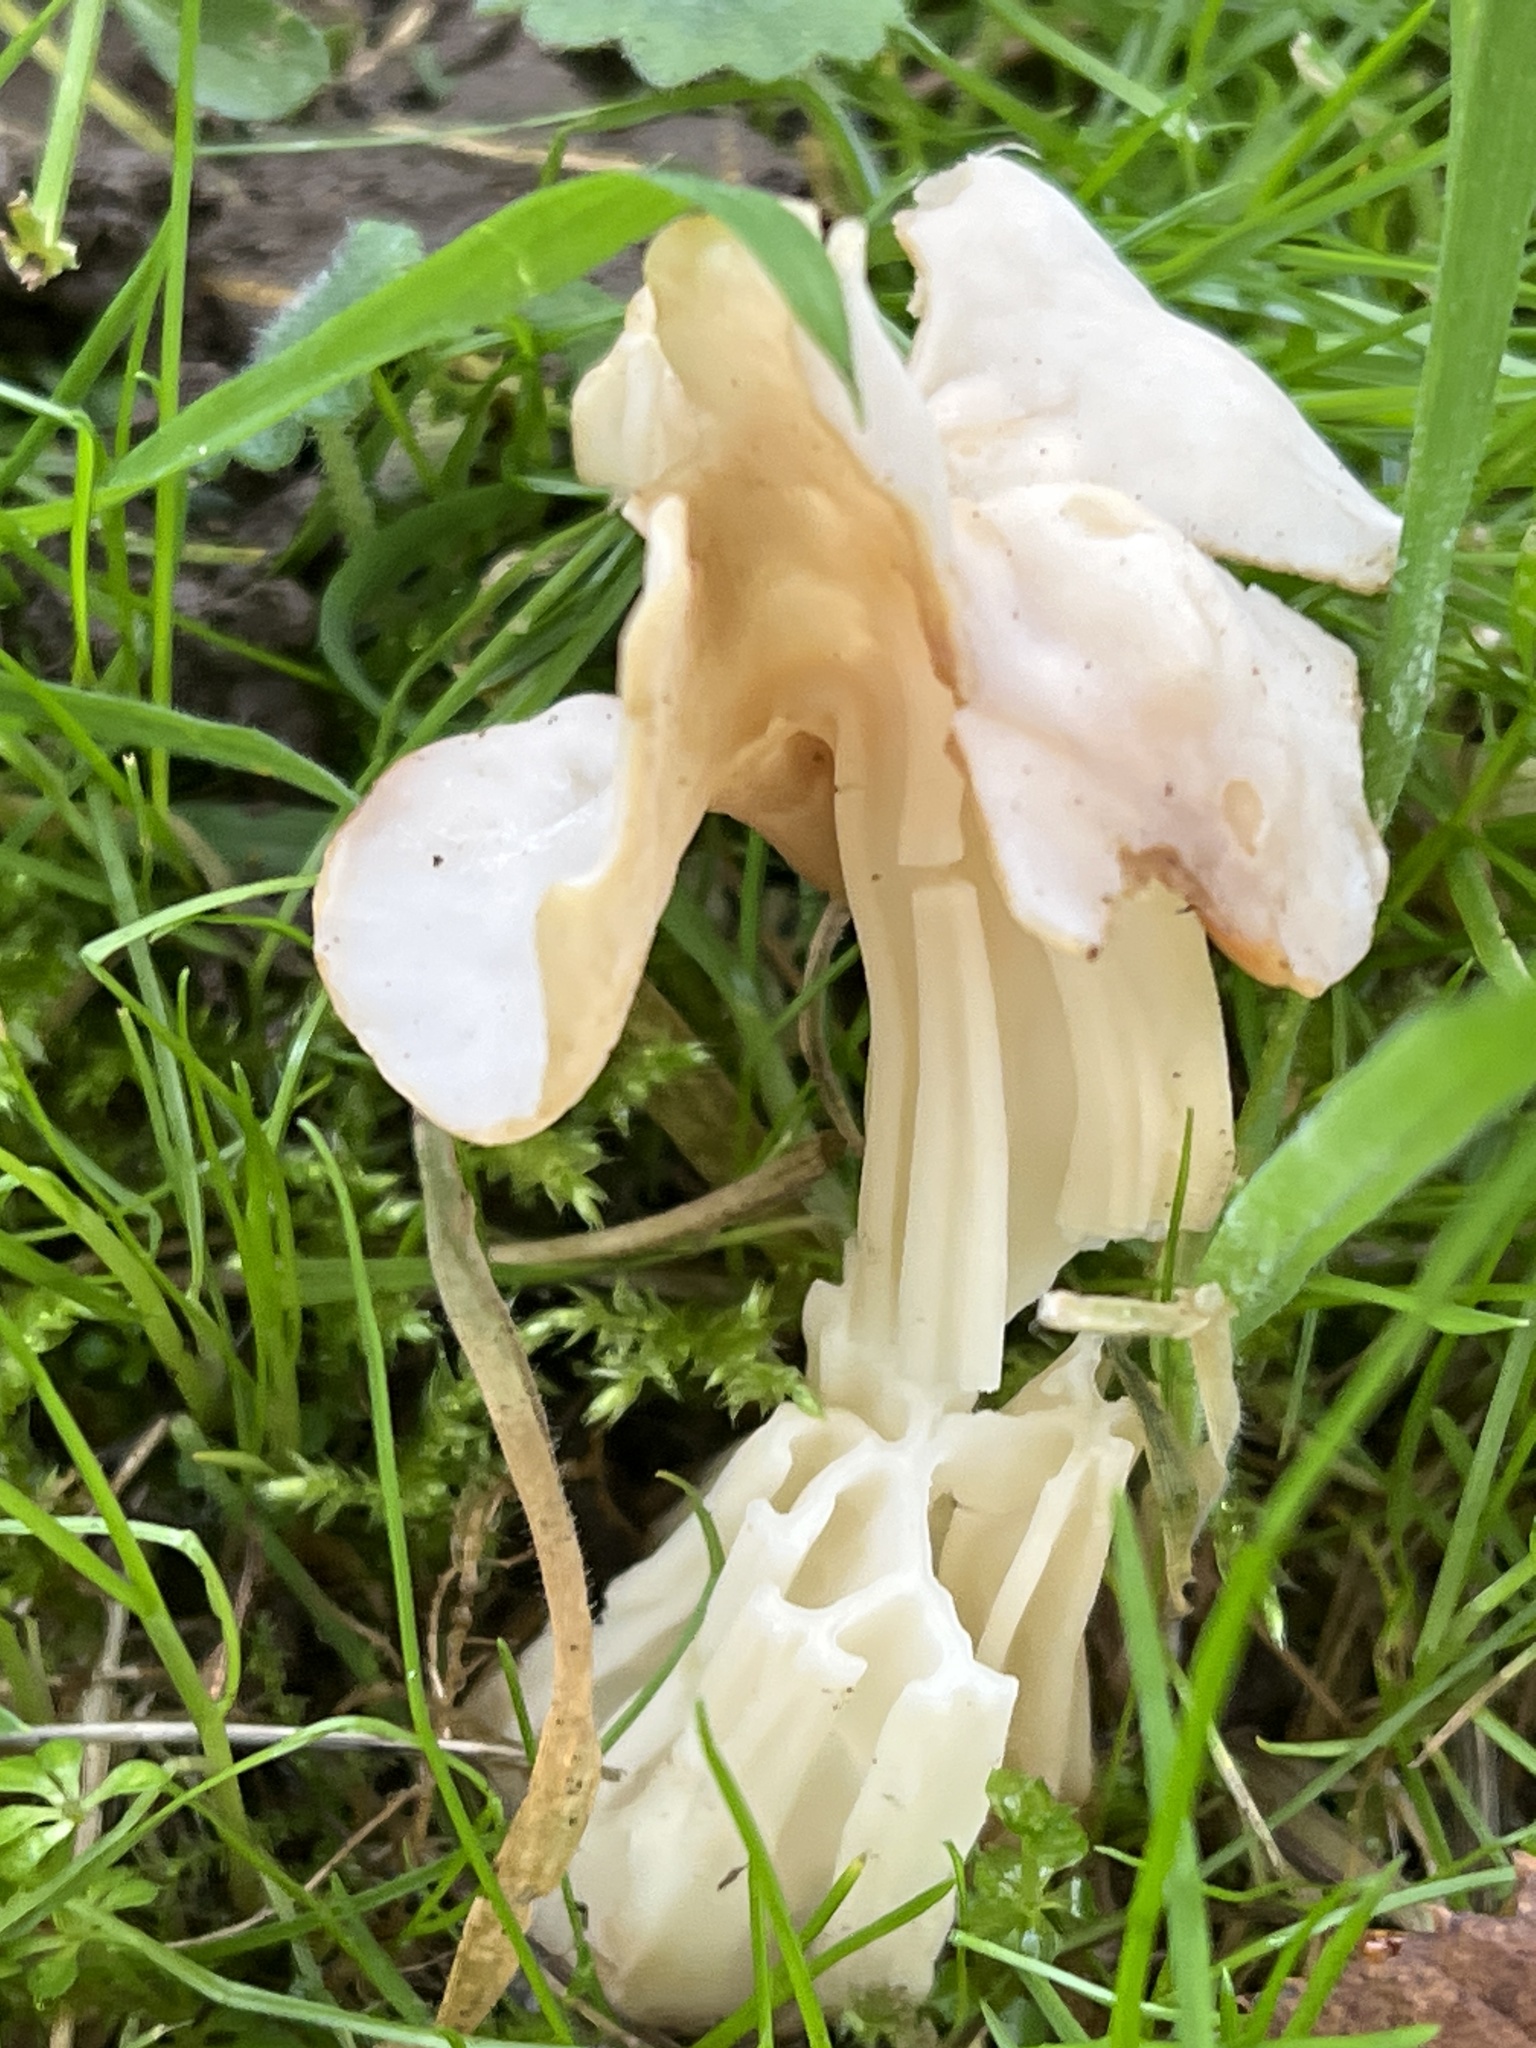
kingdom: Fungi
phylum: Ascomycota
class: Pezizomycetes
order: Pezizales
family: Helvellaceae
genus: Helvella
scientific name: Helvella crispa
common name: White saddle
